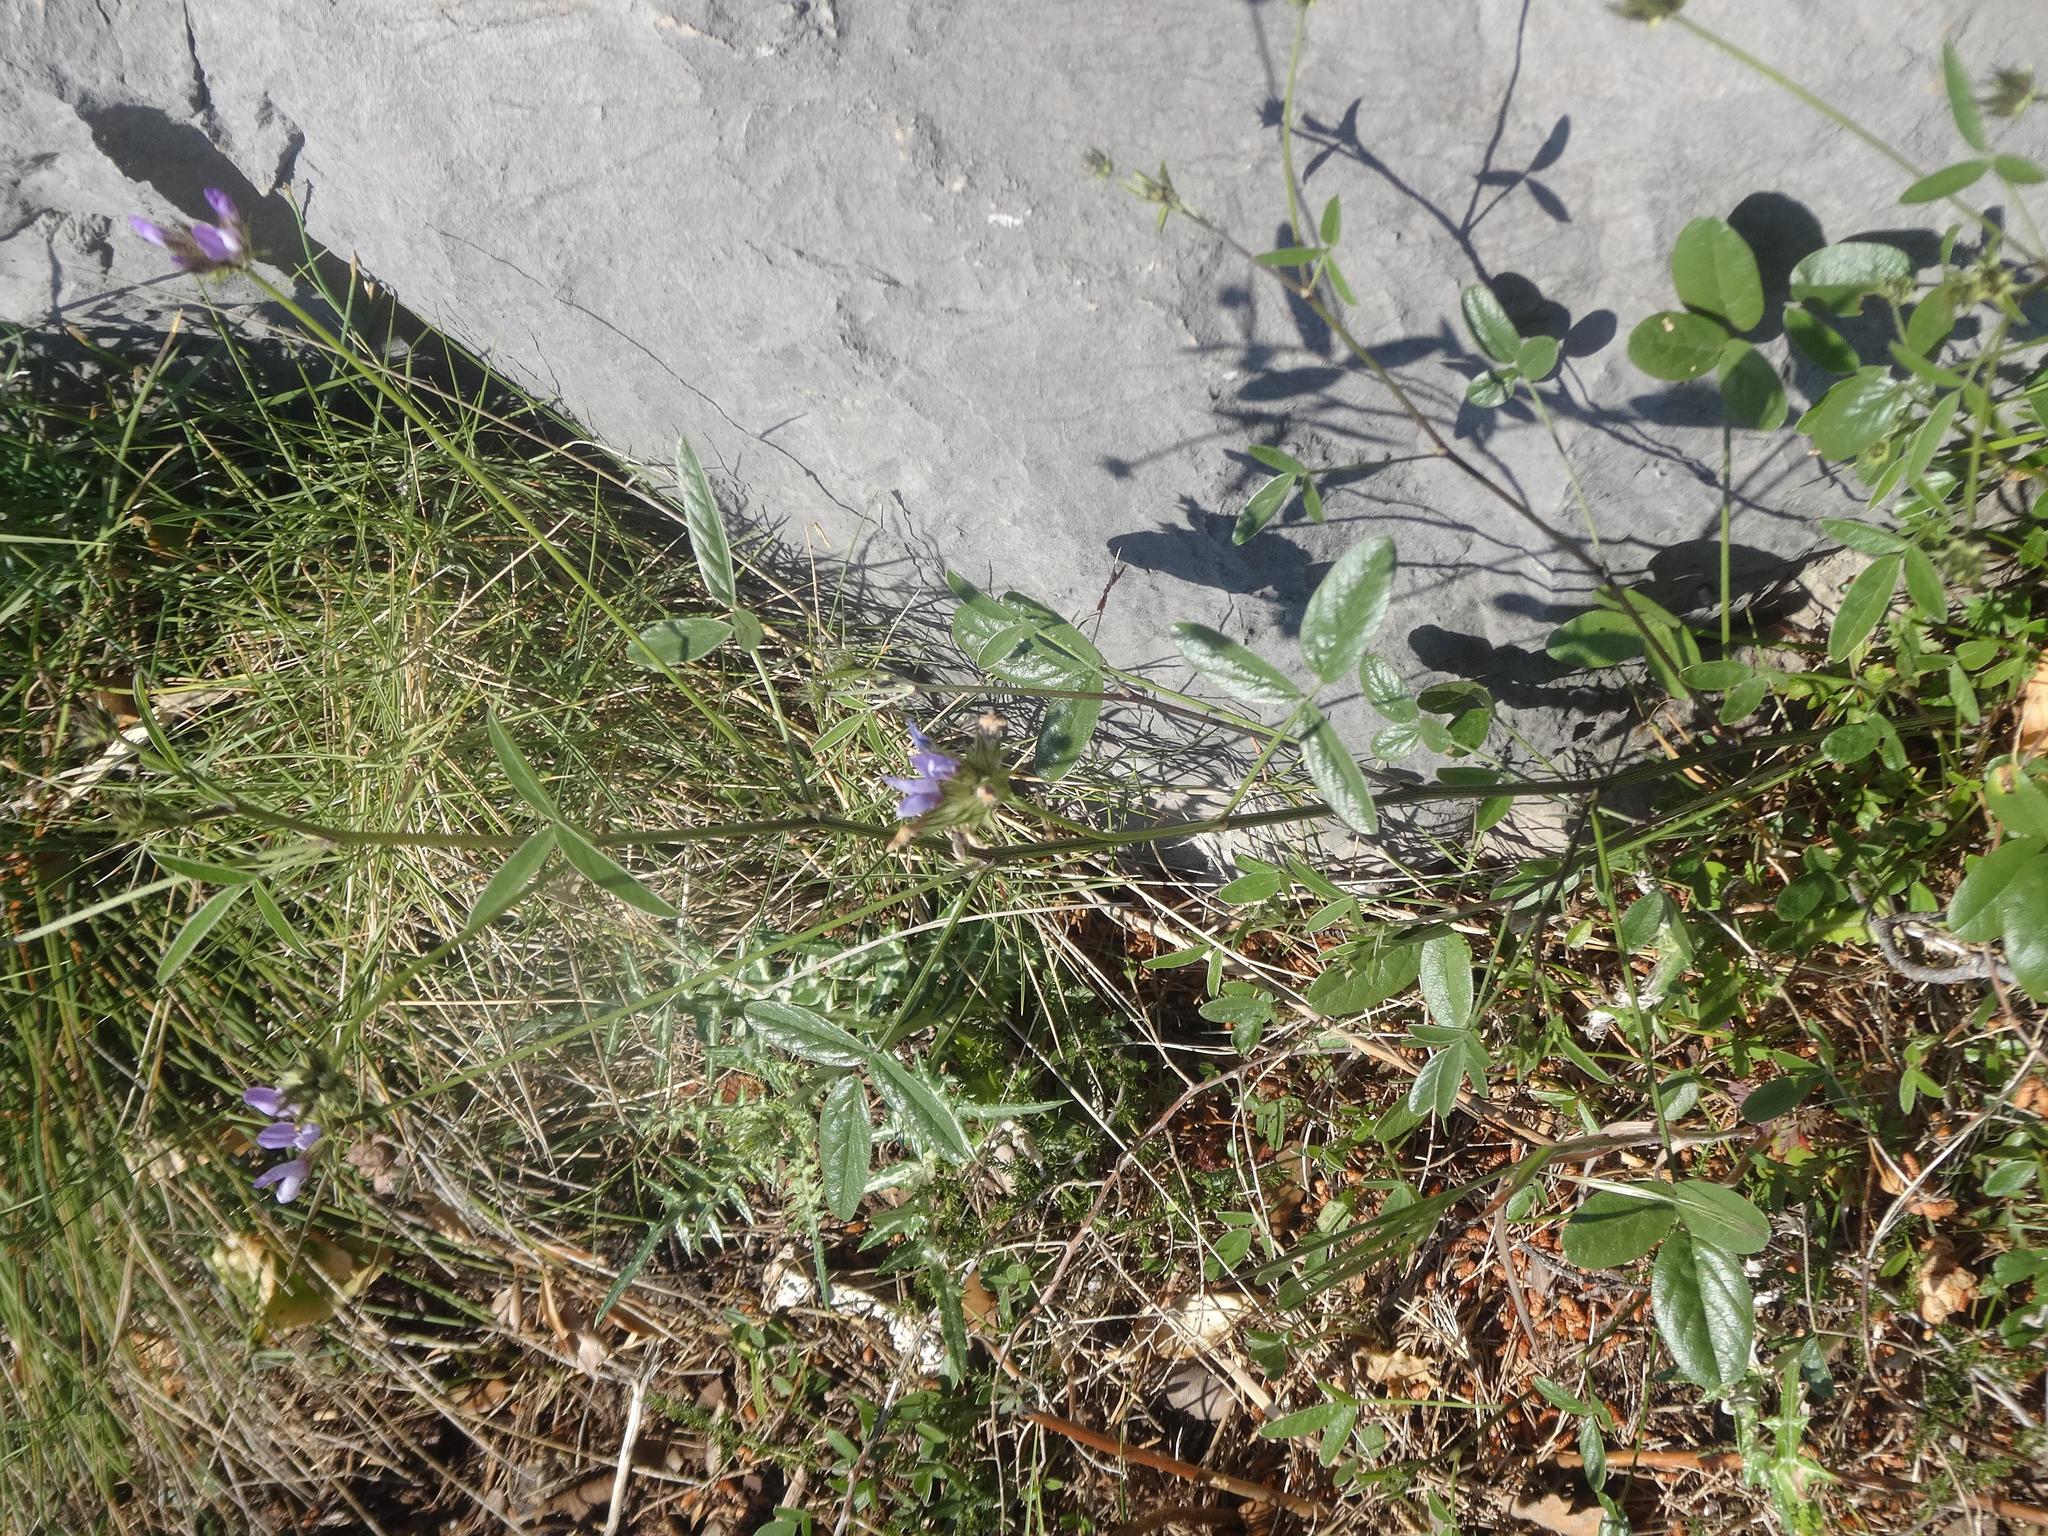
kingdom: Plantae
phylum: Tracheophyta
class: Magnoliopsida
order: Fabales
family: Fabaceae
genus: Bituminaria
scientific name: Bituminaria bituminosa
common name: Arabian pea
